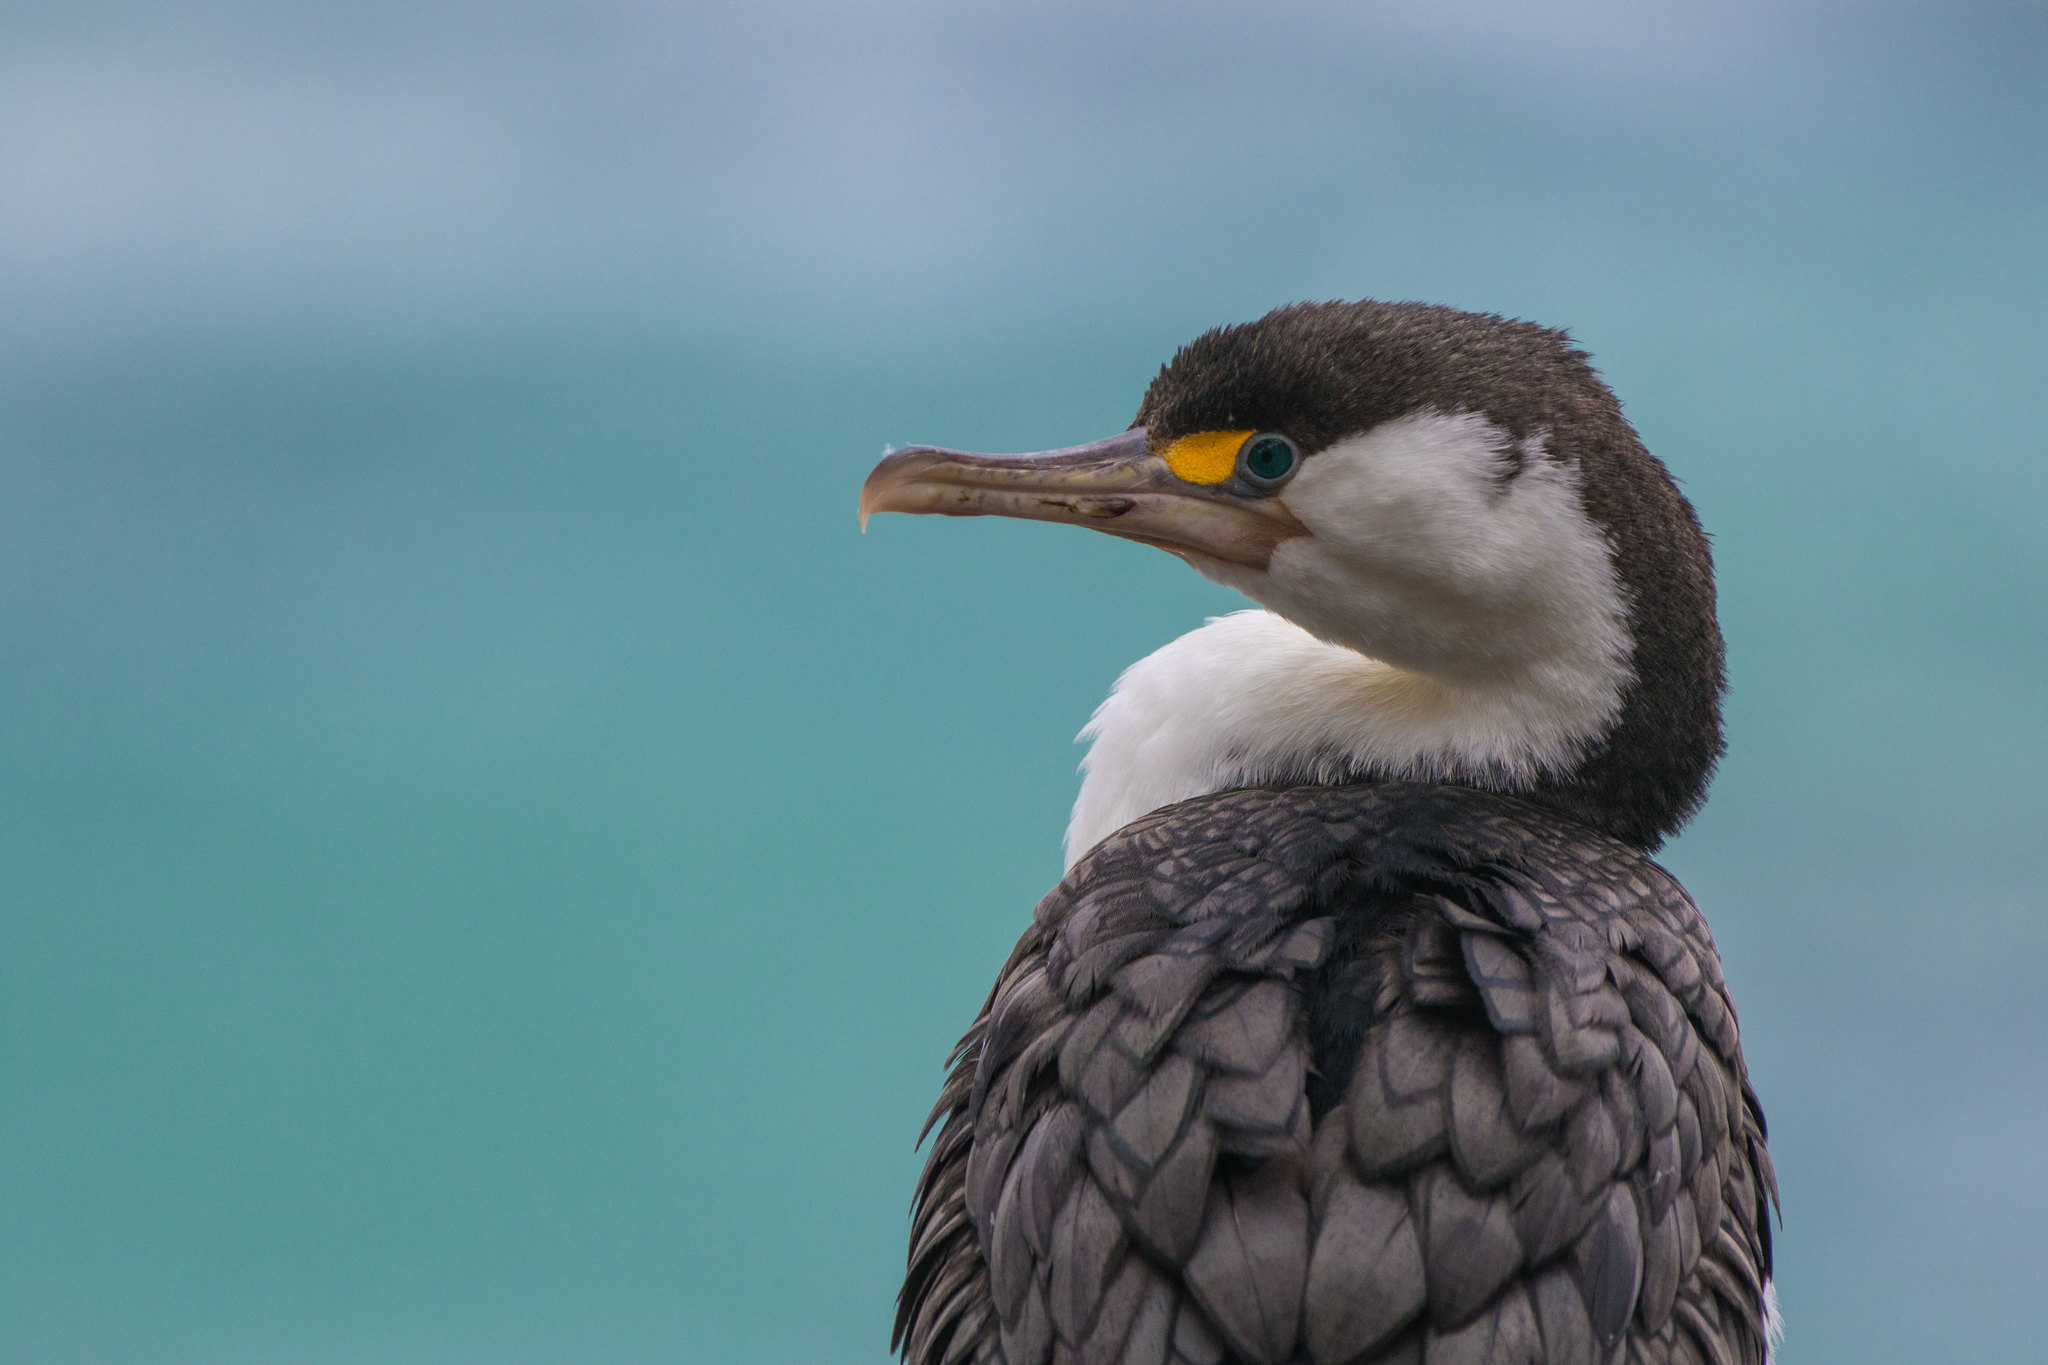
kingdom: Animalia
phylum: Chordata
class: Aves
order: Suliformes
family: Phalacrocoracidae
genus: Phalacrocorax
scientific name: Phalacrocorax varius
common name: Pied cormorant
